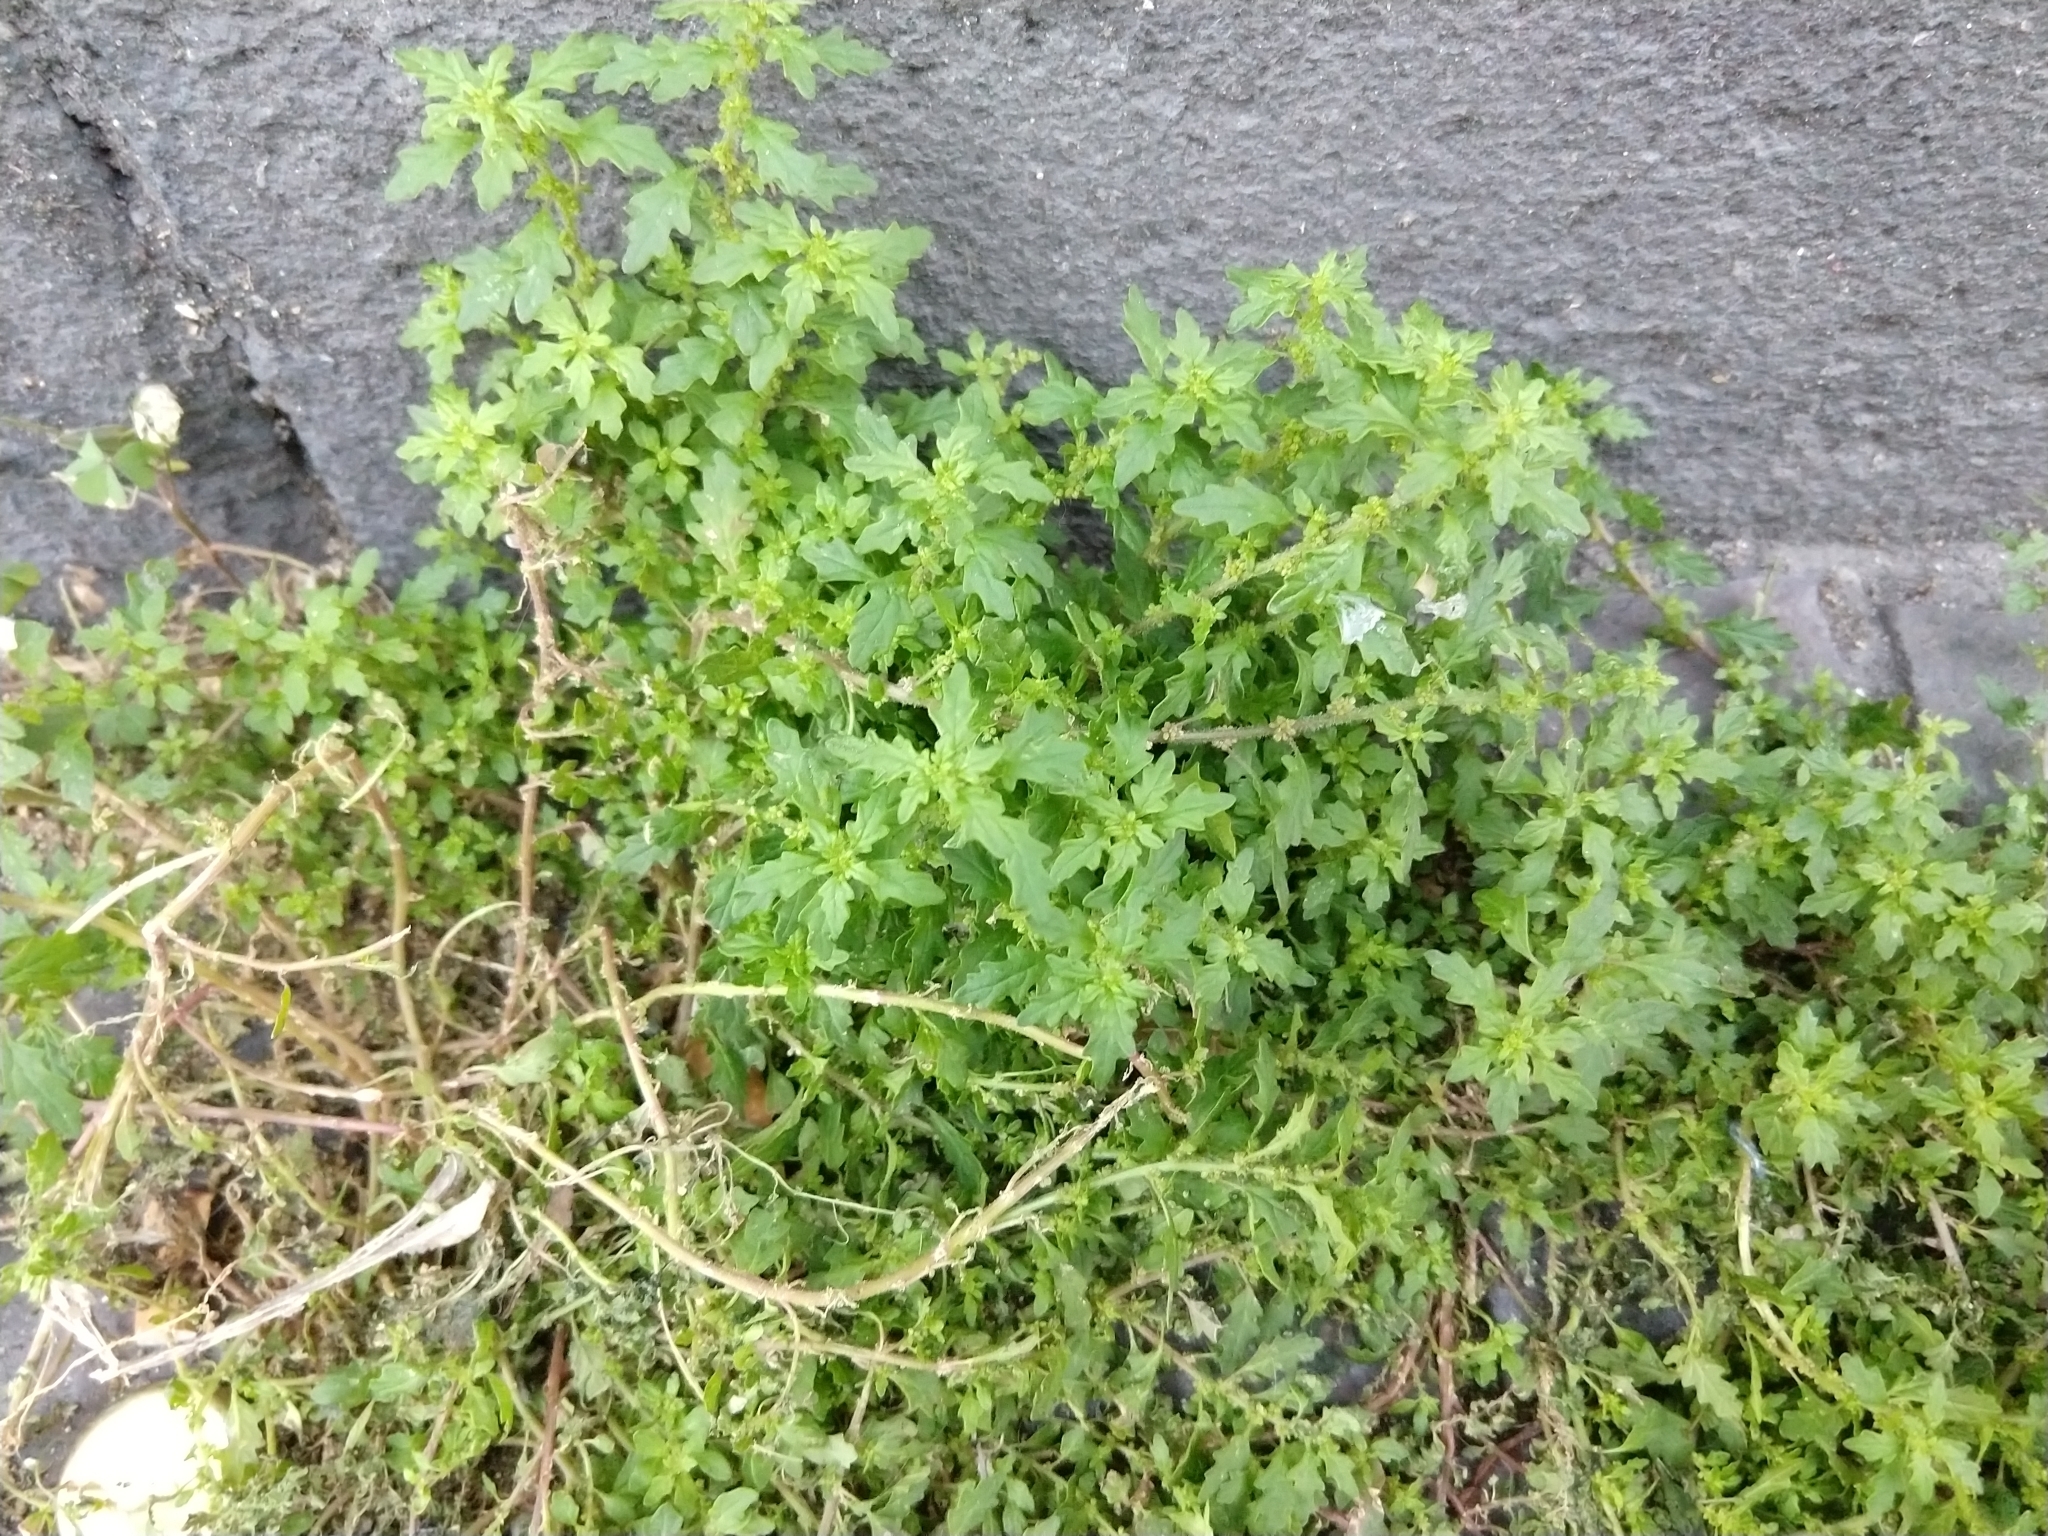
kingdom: Plantae
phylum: Tracheophyta
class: Magnoliopsida
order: Caryophyllales
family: Amaranthaceae
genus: Dysphania
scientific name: Dysphania pumilio
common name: Clammy goosefoot
